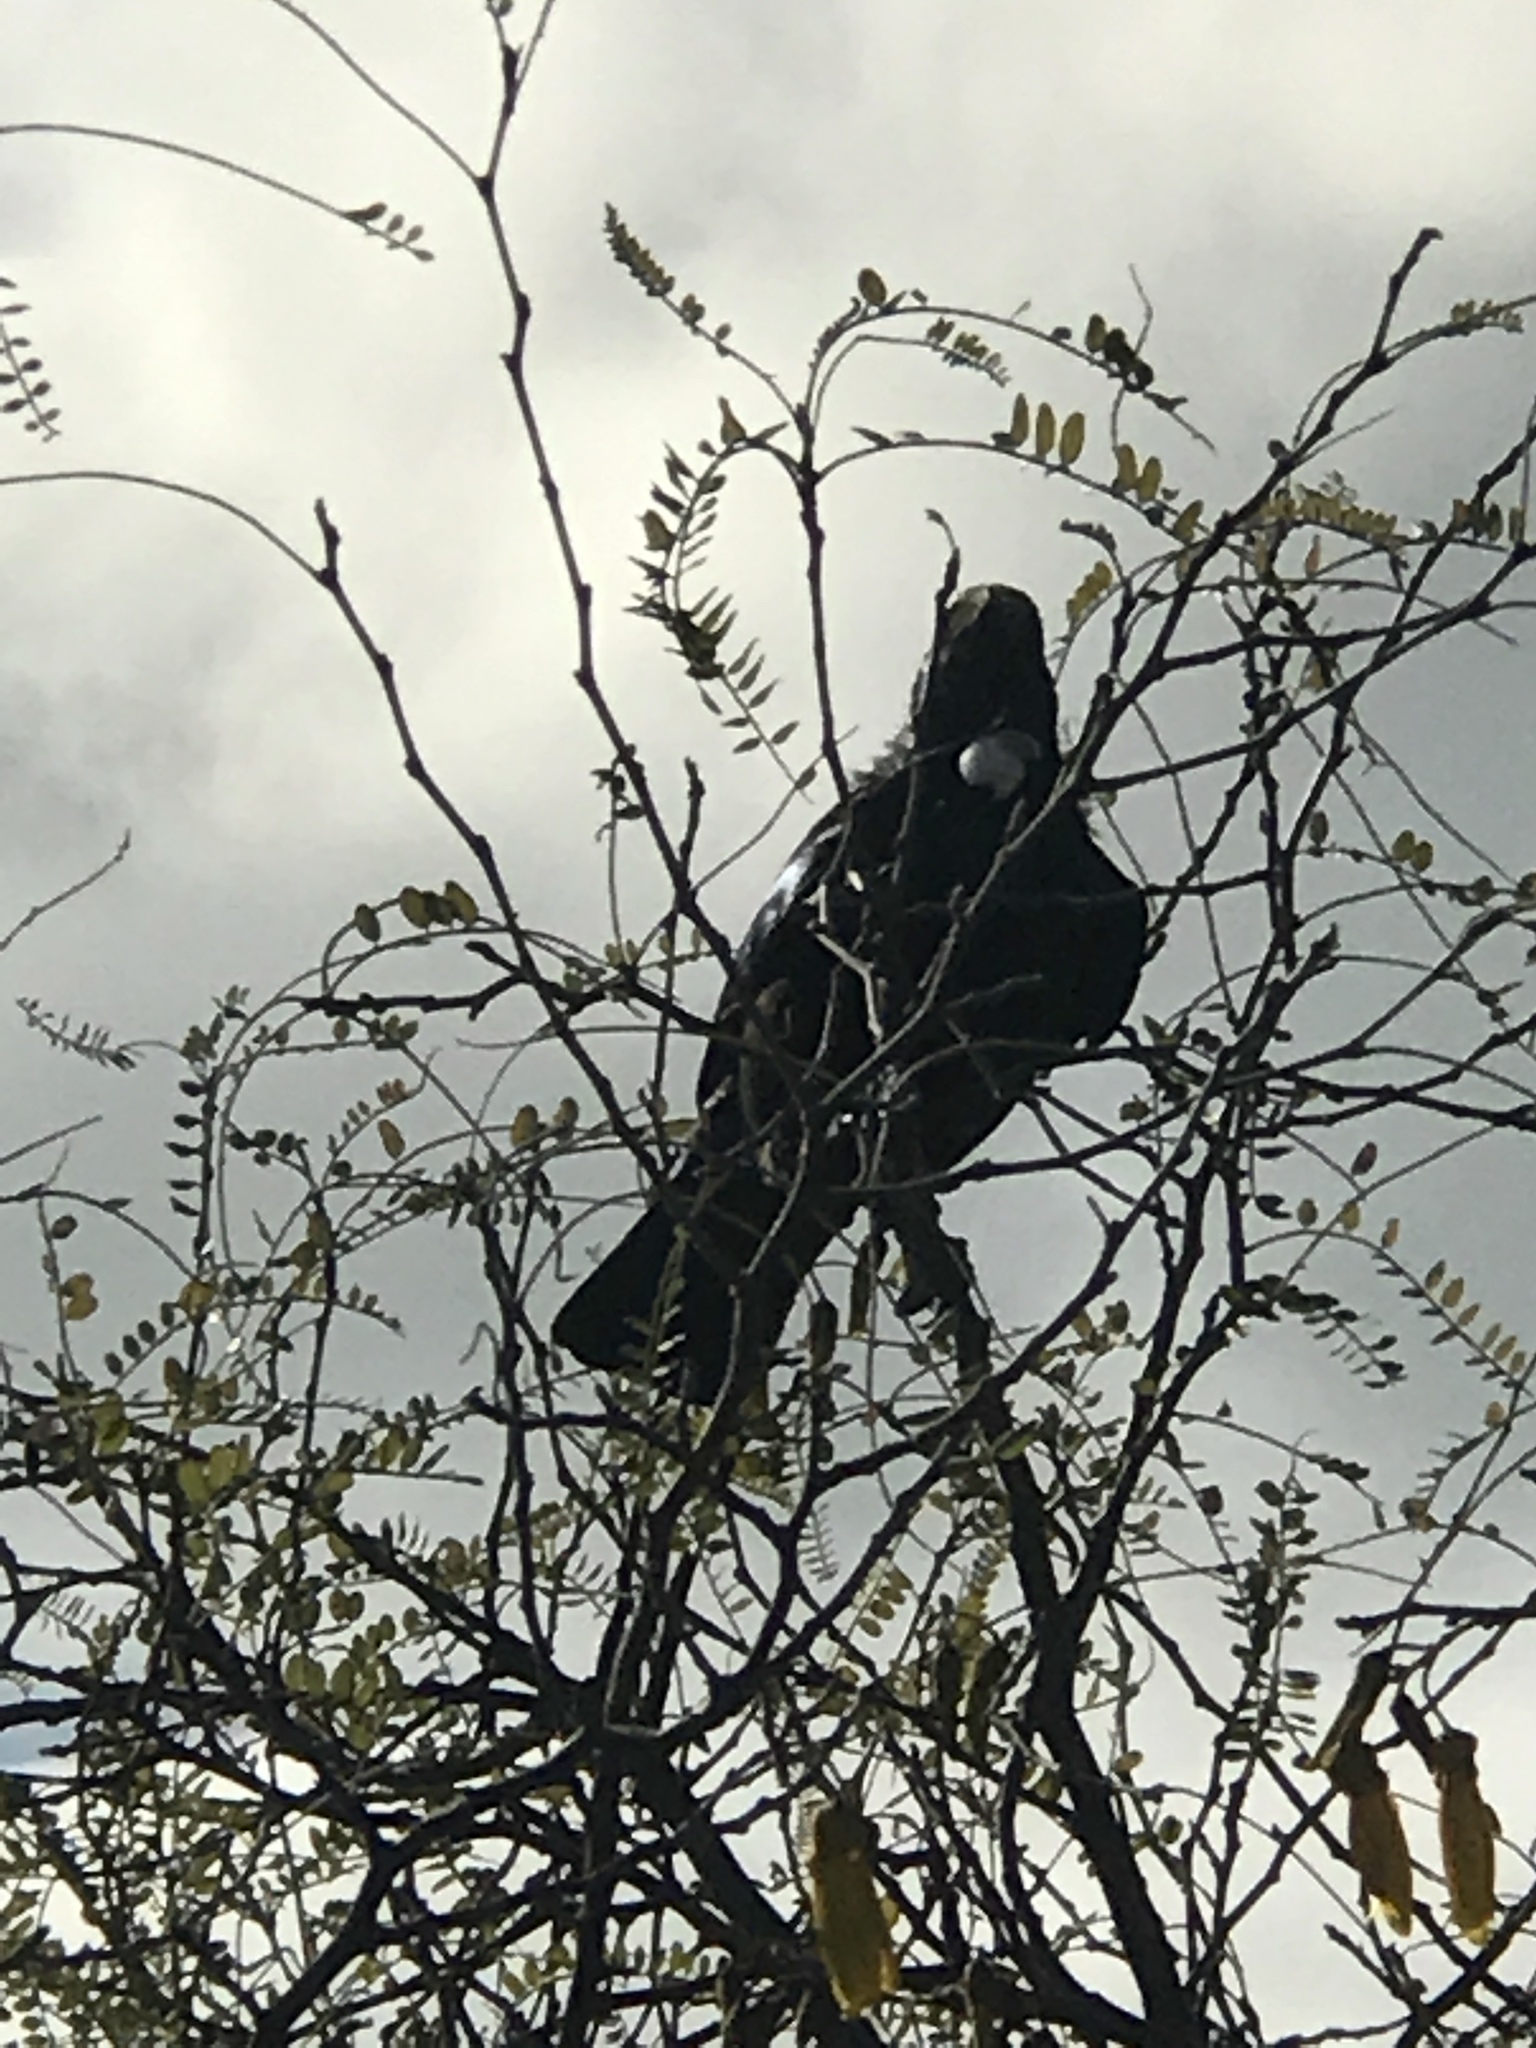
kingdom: Animalia
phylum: Chordata
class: Aves
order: Passeriformes
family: Meliphagidae
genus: Prosthemadera
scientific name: Prosthemadera novaeseelandiae
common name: Tui
